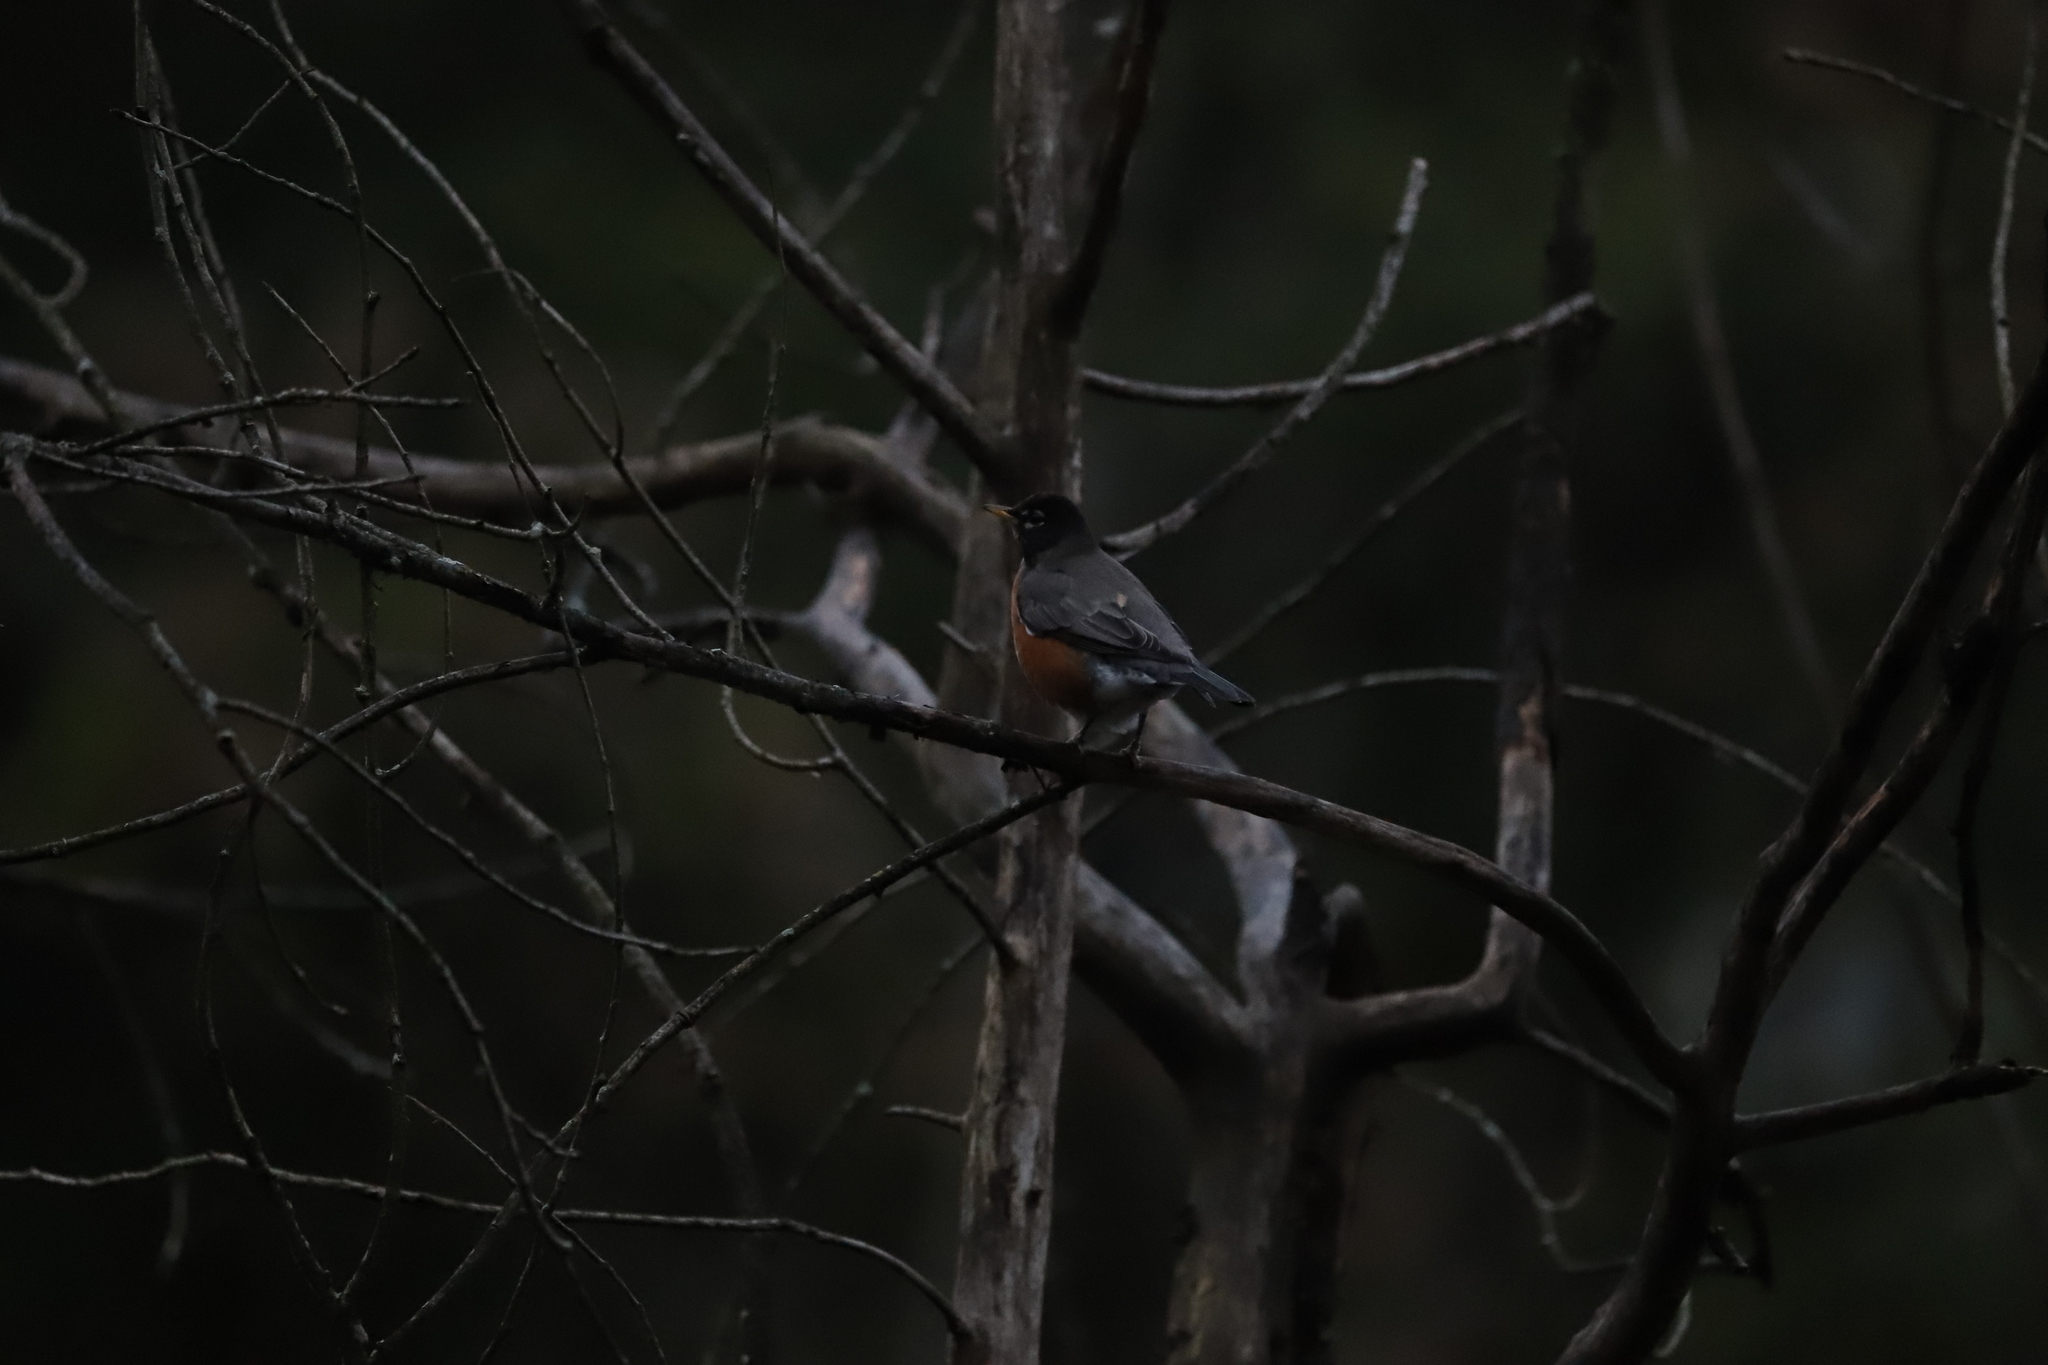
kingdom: Animalia
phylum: Chordata
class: Aves
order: Passeriformes
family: Turdidae
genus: Turdus
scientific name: Turdus migratorius
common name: American robin
